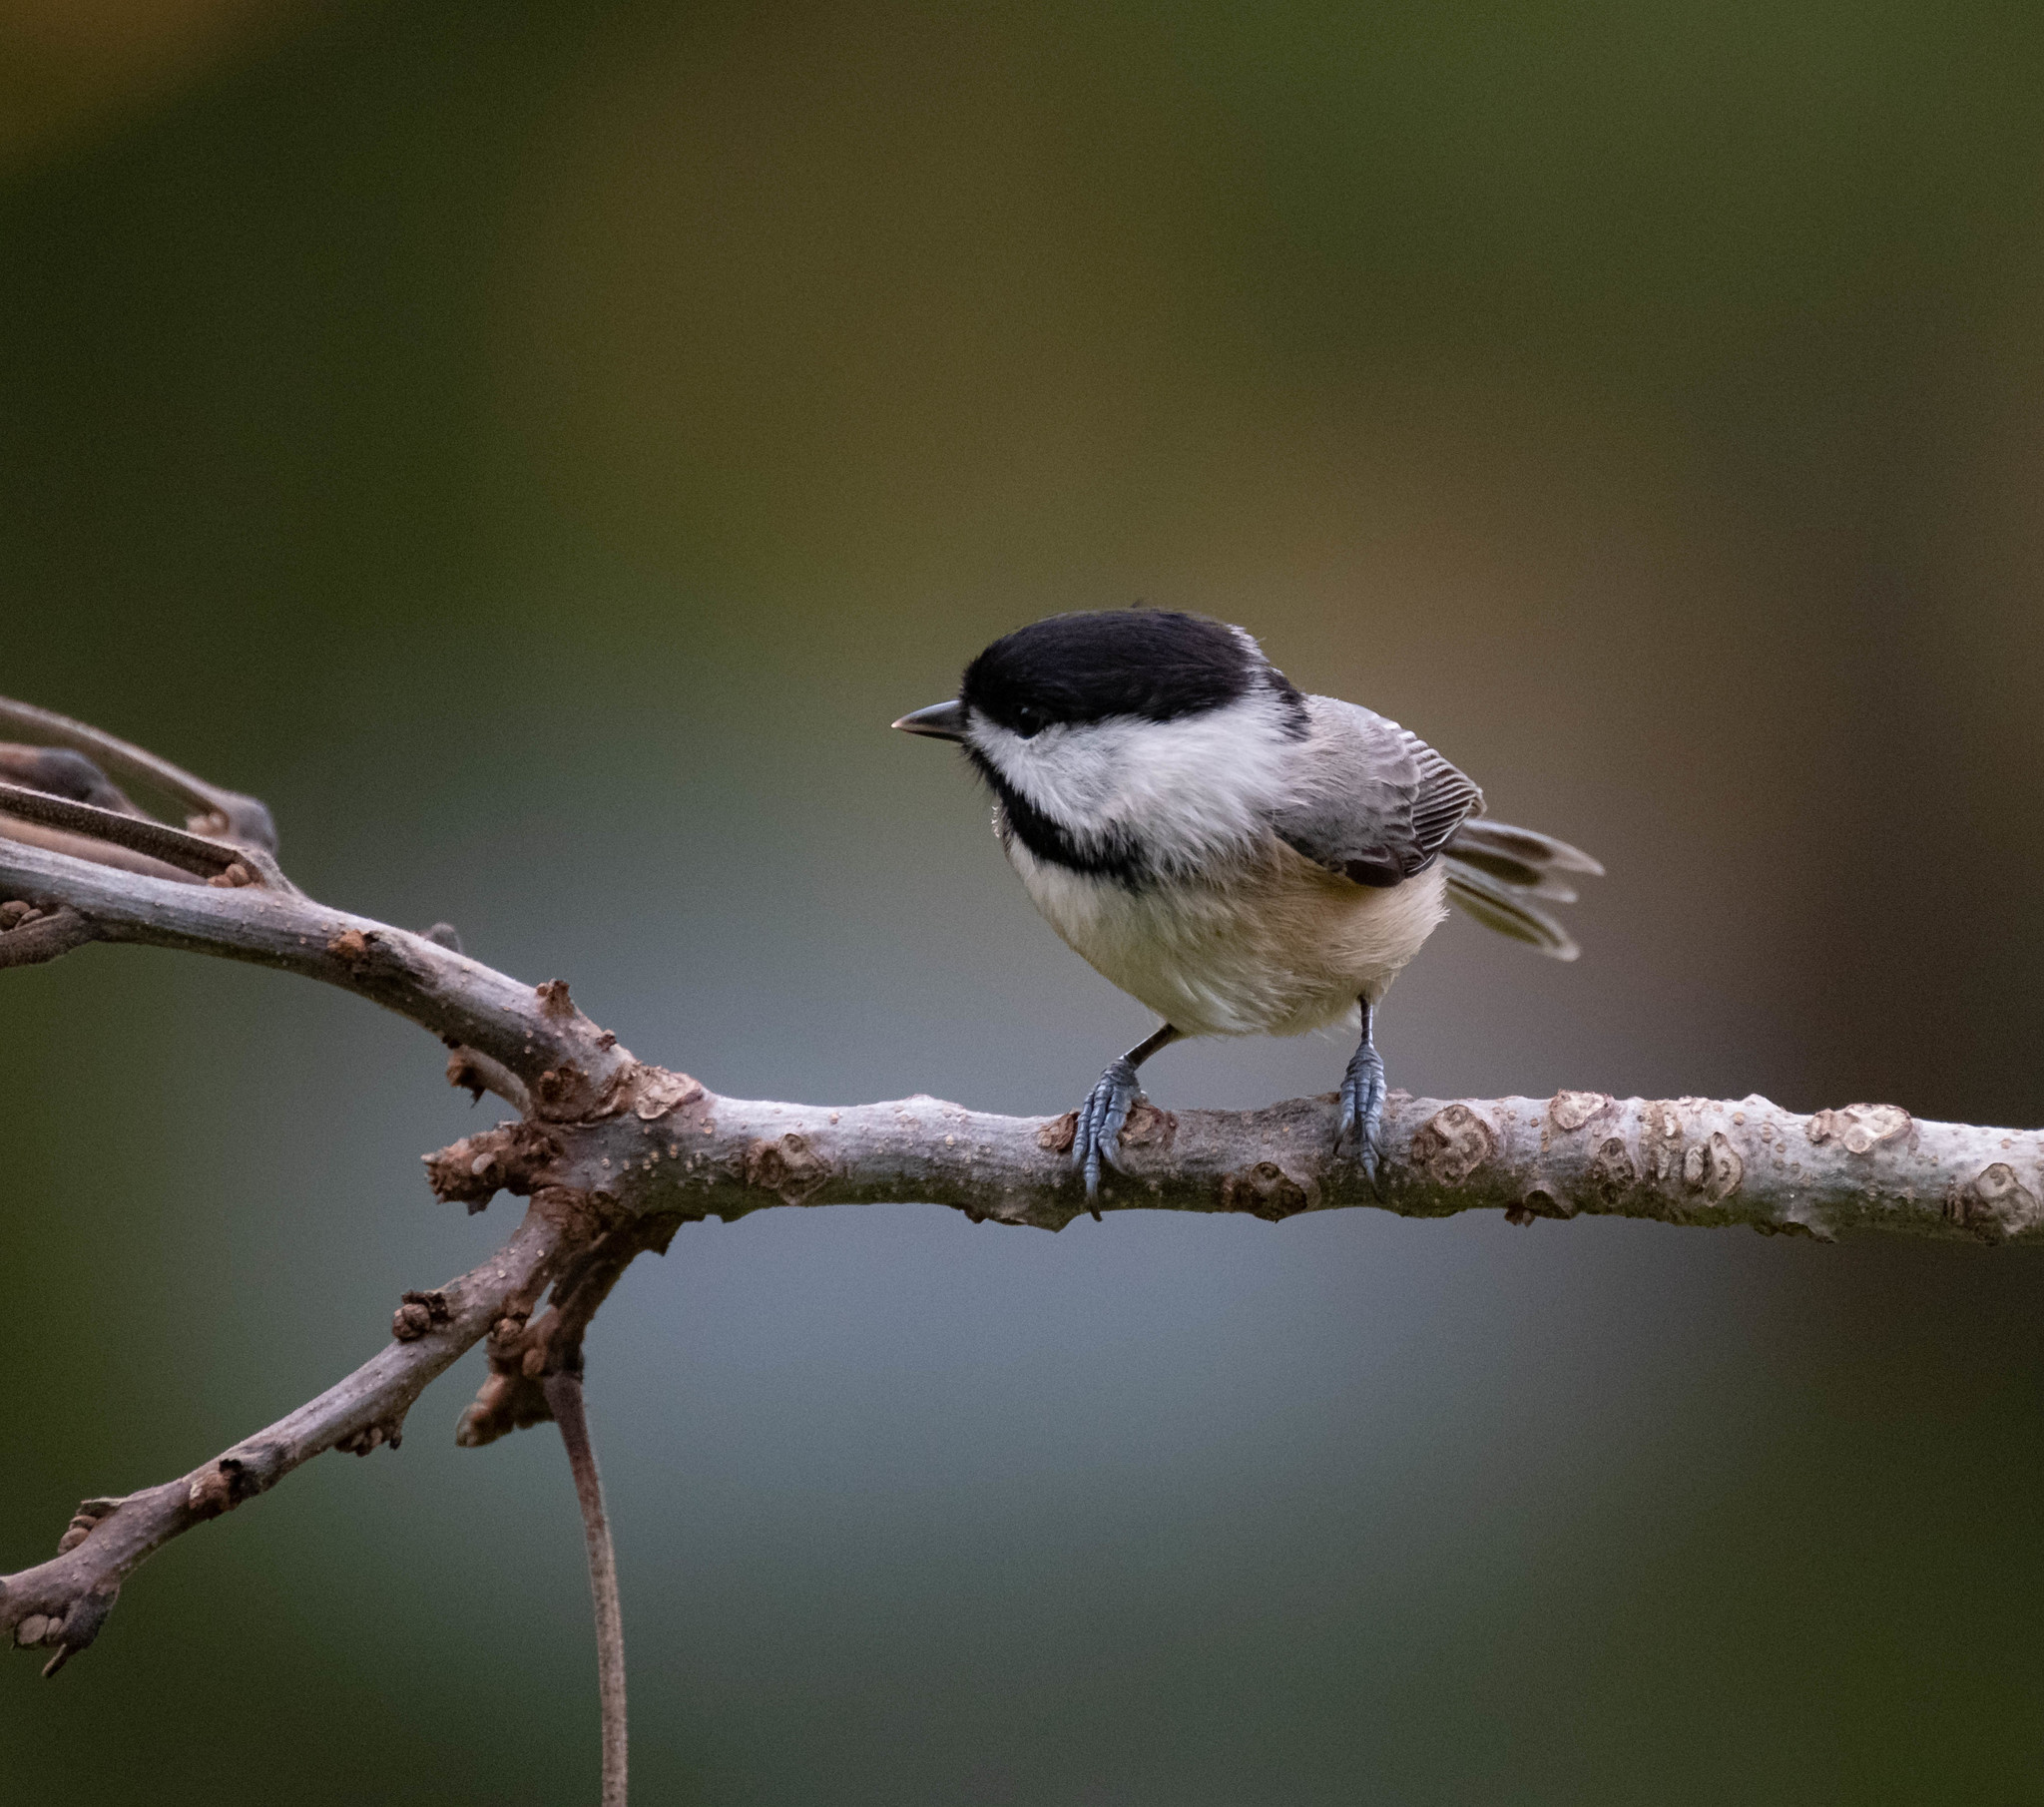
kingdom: Animalia
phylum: Chordata
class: Aves
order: Passeriformes
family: Paridae
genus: Poecile
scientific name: Poecile carolinensis
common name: Carolina chickadee
